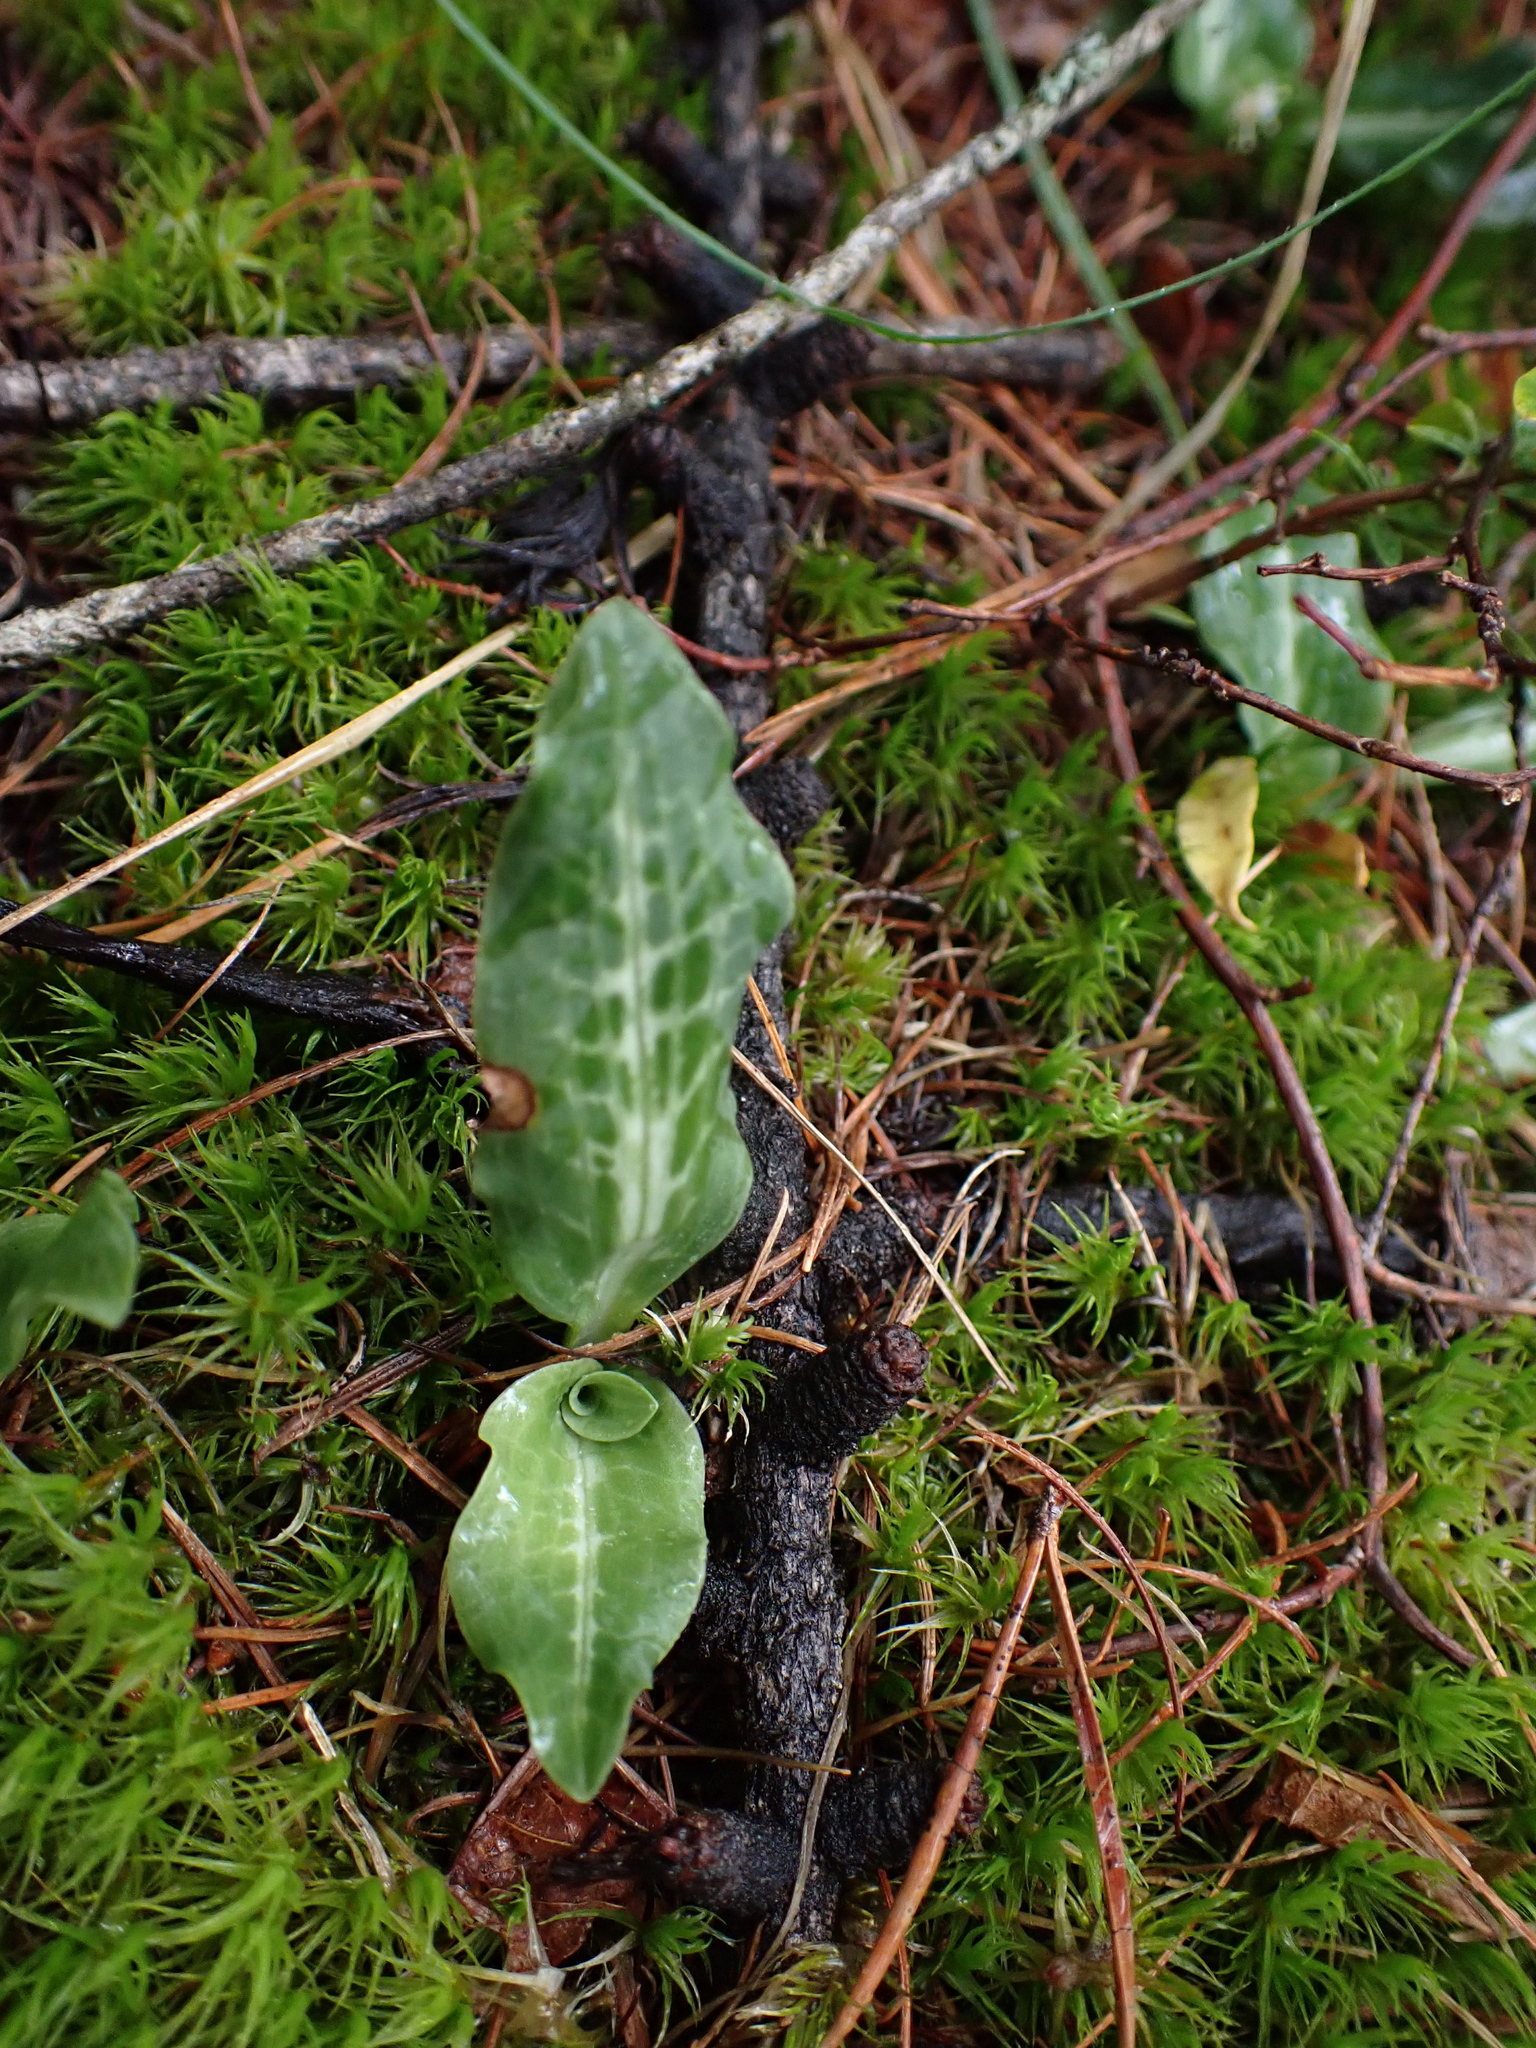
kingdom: Plantae
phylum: Tracheophyta
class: Liliopsida
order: Asparagales
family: Orchidaceae
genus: Goodyera
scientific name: Goodyera oblongifolia
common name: Giant rattlesnake-plantain
